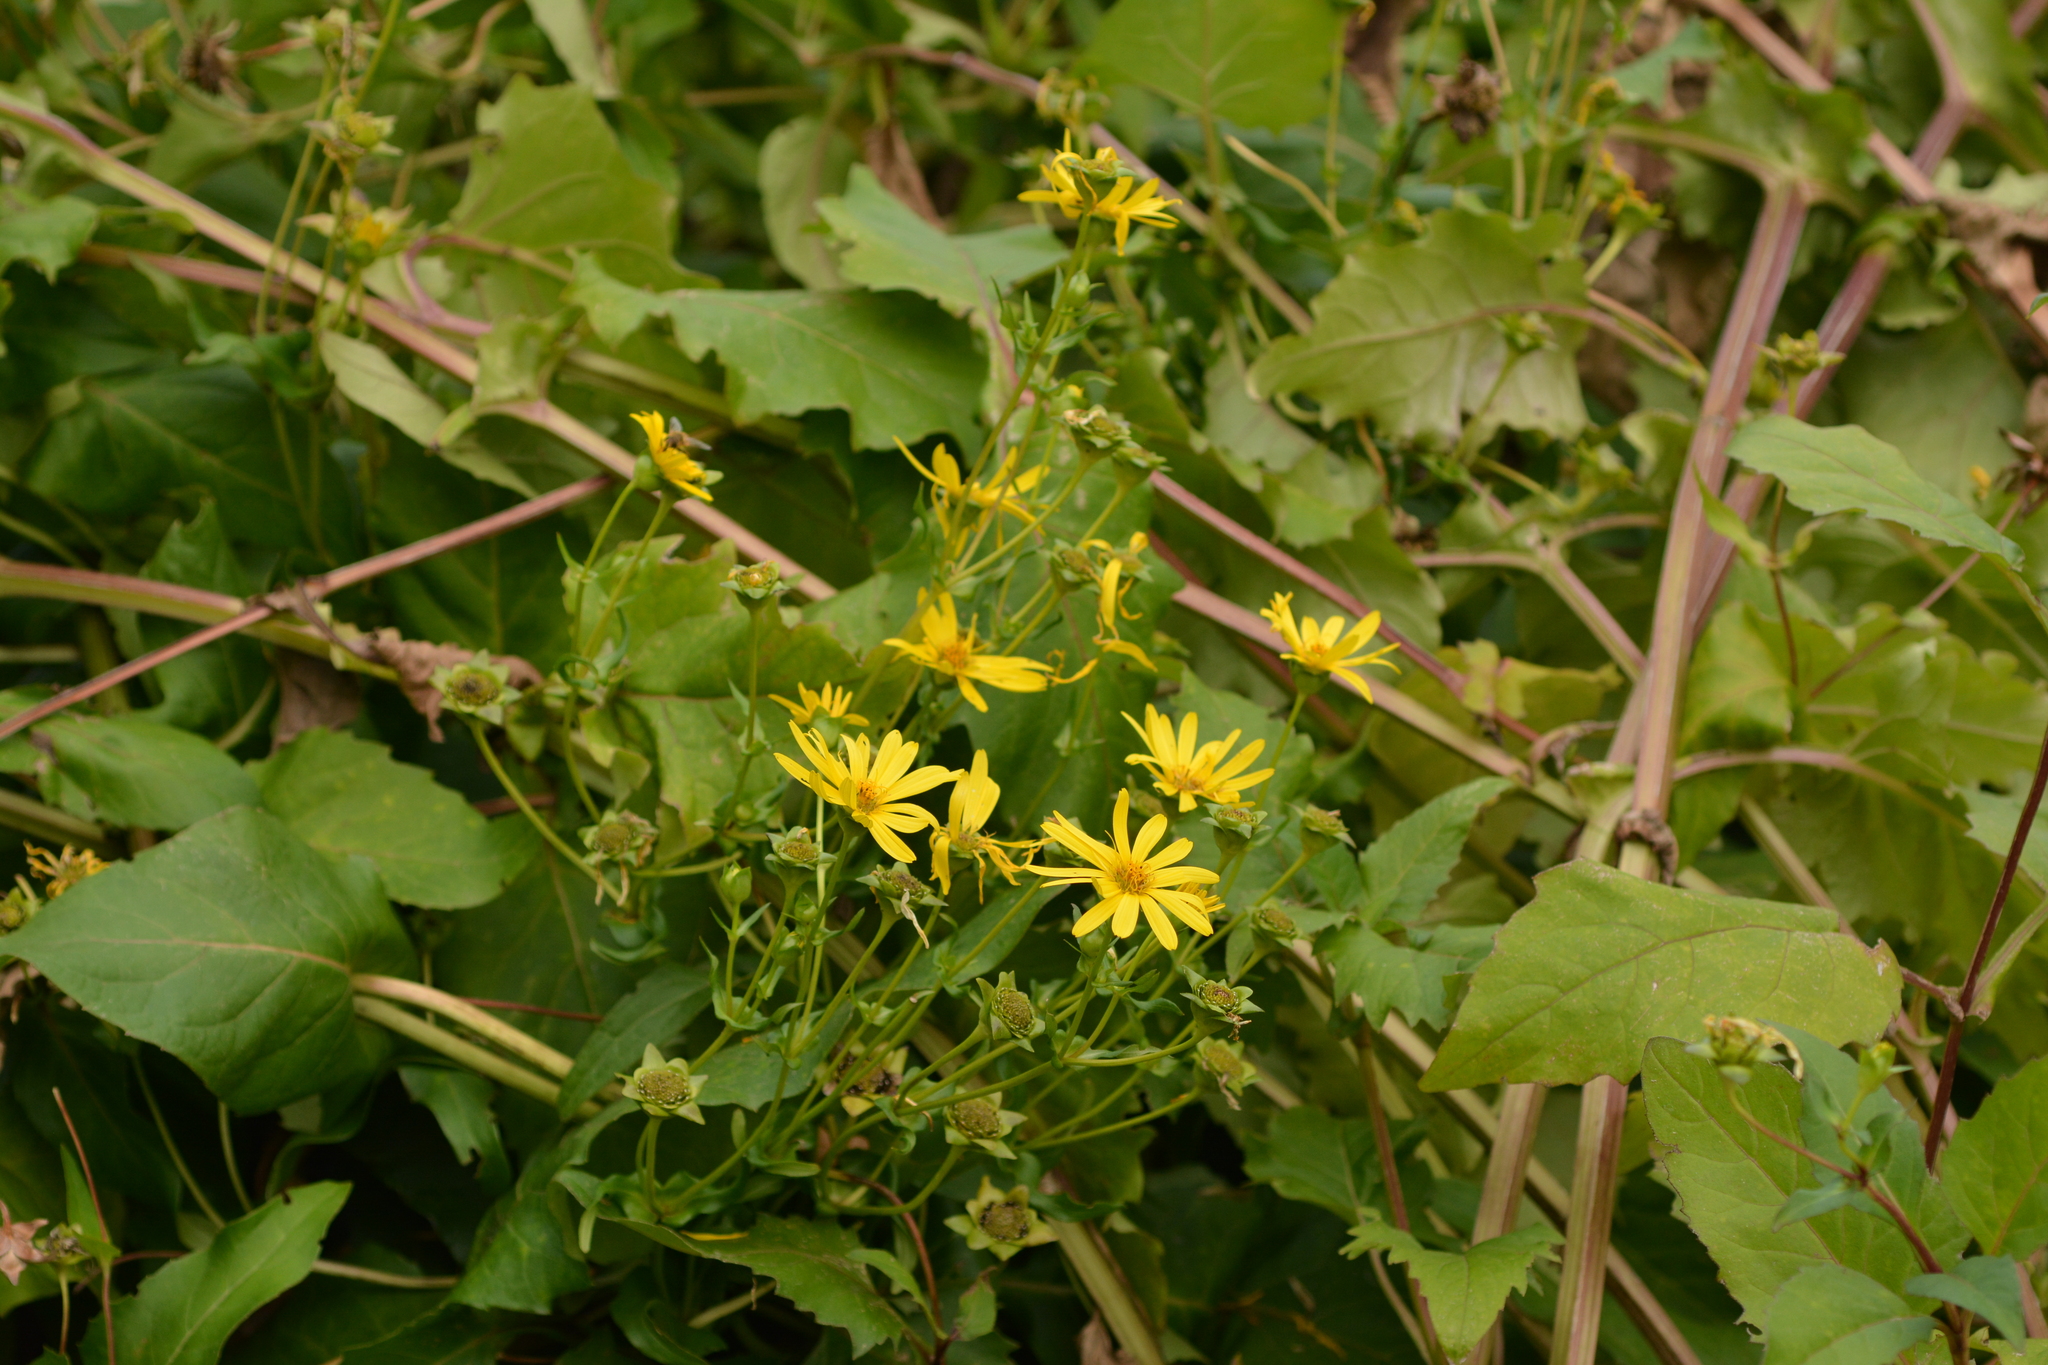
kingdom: Plantae
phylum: Tracheophyta
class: Magnoliopsida
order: Asterales
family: Asteraceae
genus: Silphium
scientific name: Silphium perfoliatum
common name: Cup-plant
